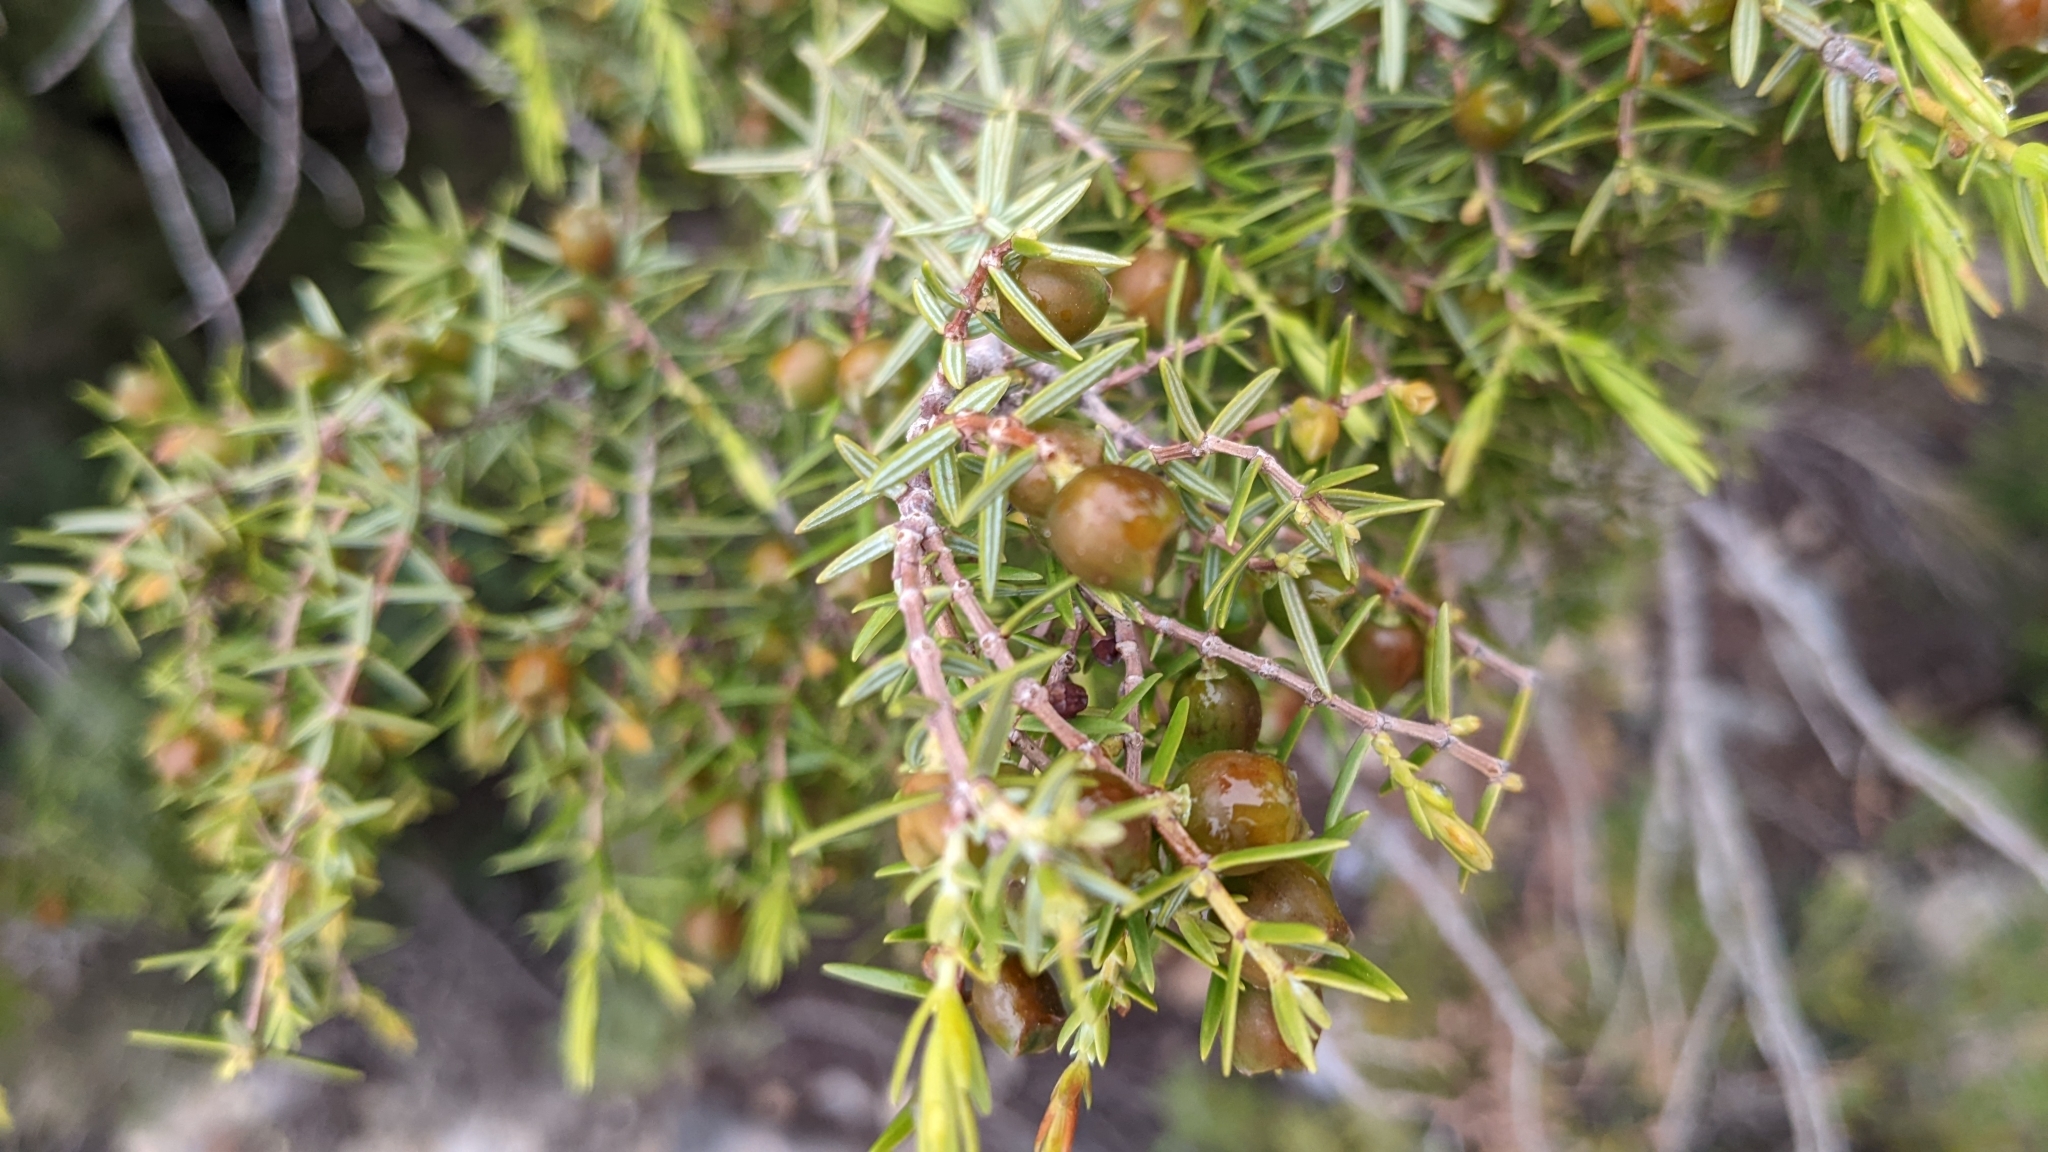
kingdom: Plantae
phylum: Tracheophyta
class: Pinopsida
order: Pinales
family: Cupressaceae
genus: Juniperus
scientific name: Juniperus oxycedrus
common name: Prickly juniper
